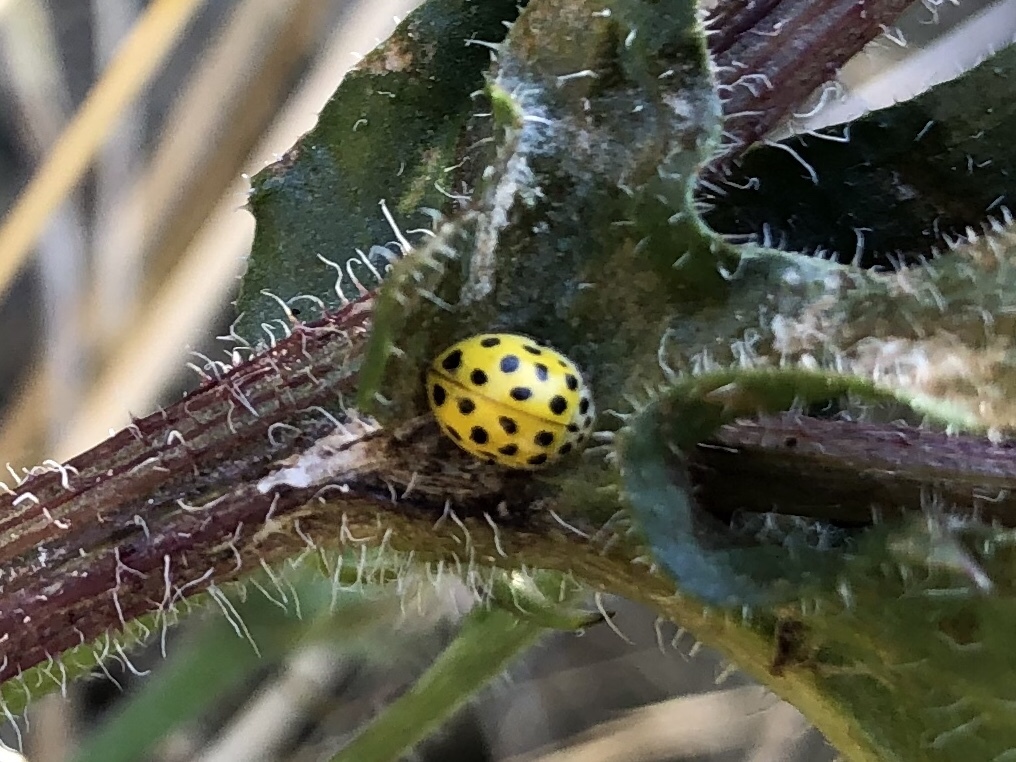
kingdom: Animalia
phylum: Arthropoda
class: Insecta
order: Coleoptera
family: Coccinellidae
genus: Psyllobora
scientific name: Psyllobora vigintiduopunctata
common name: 22-spot ladybird
